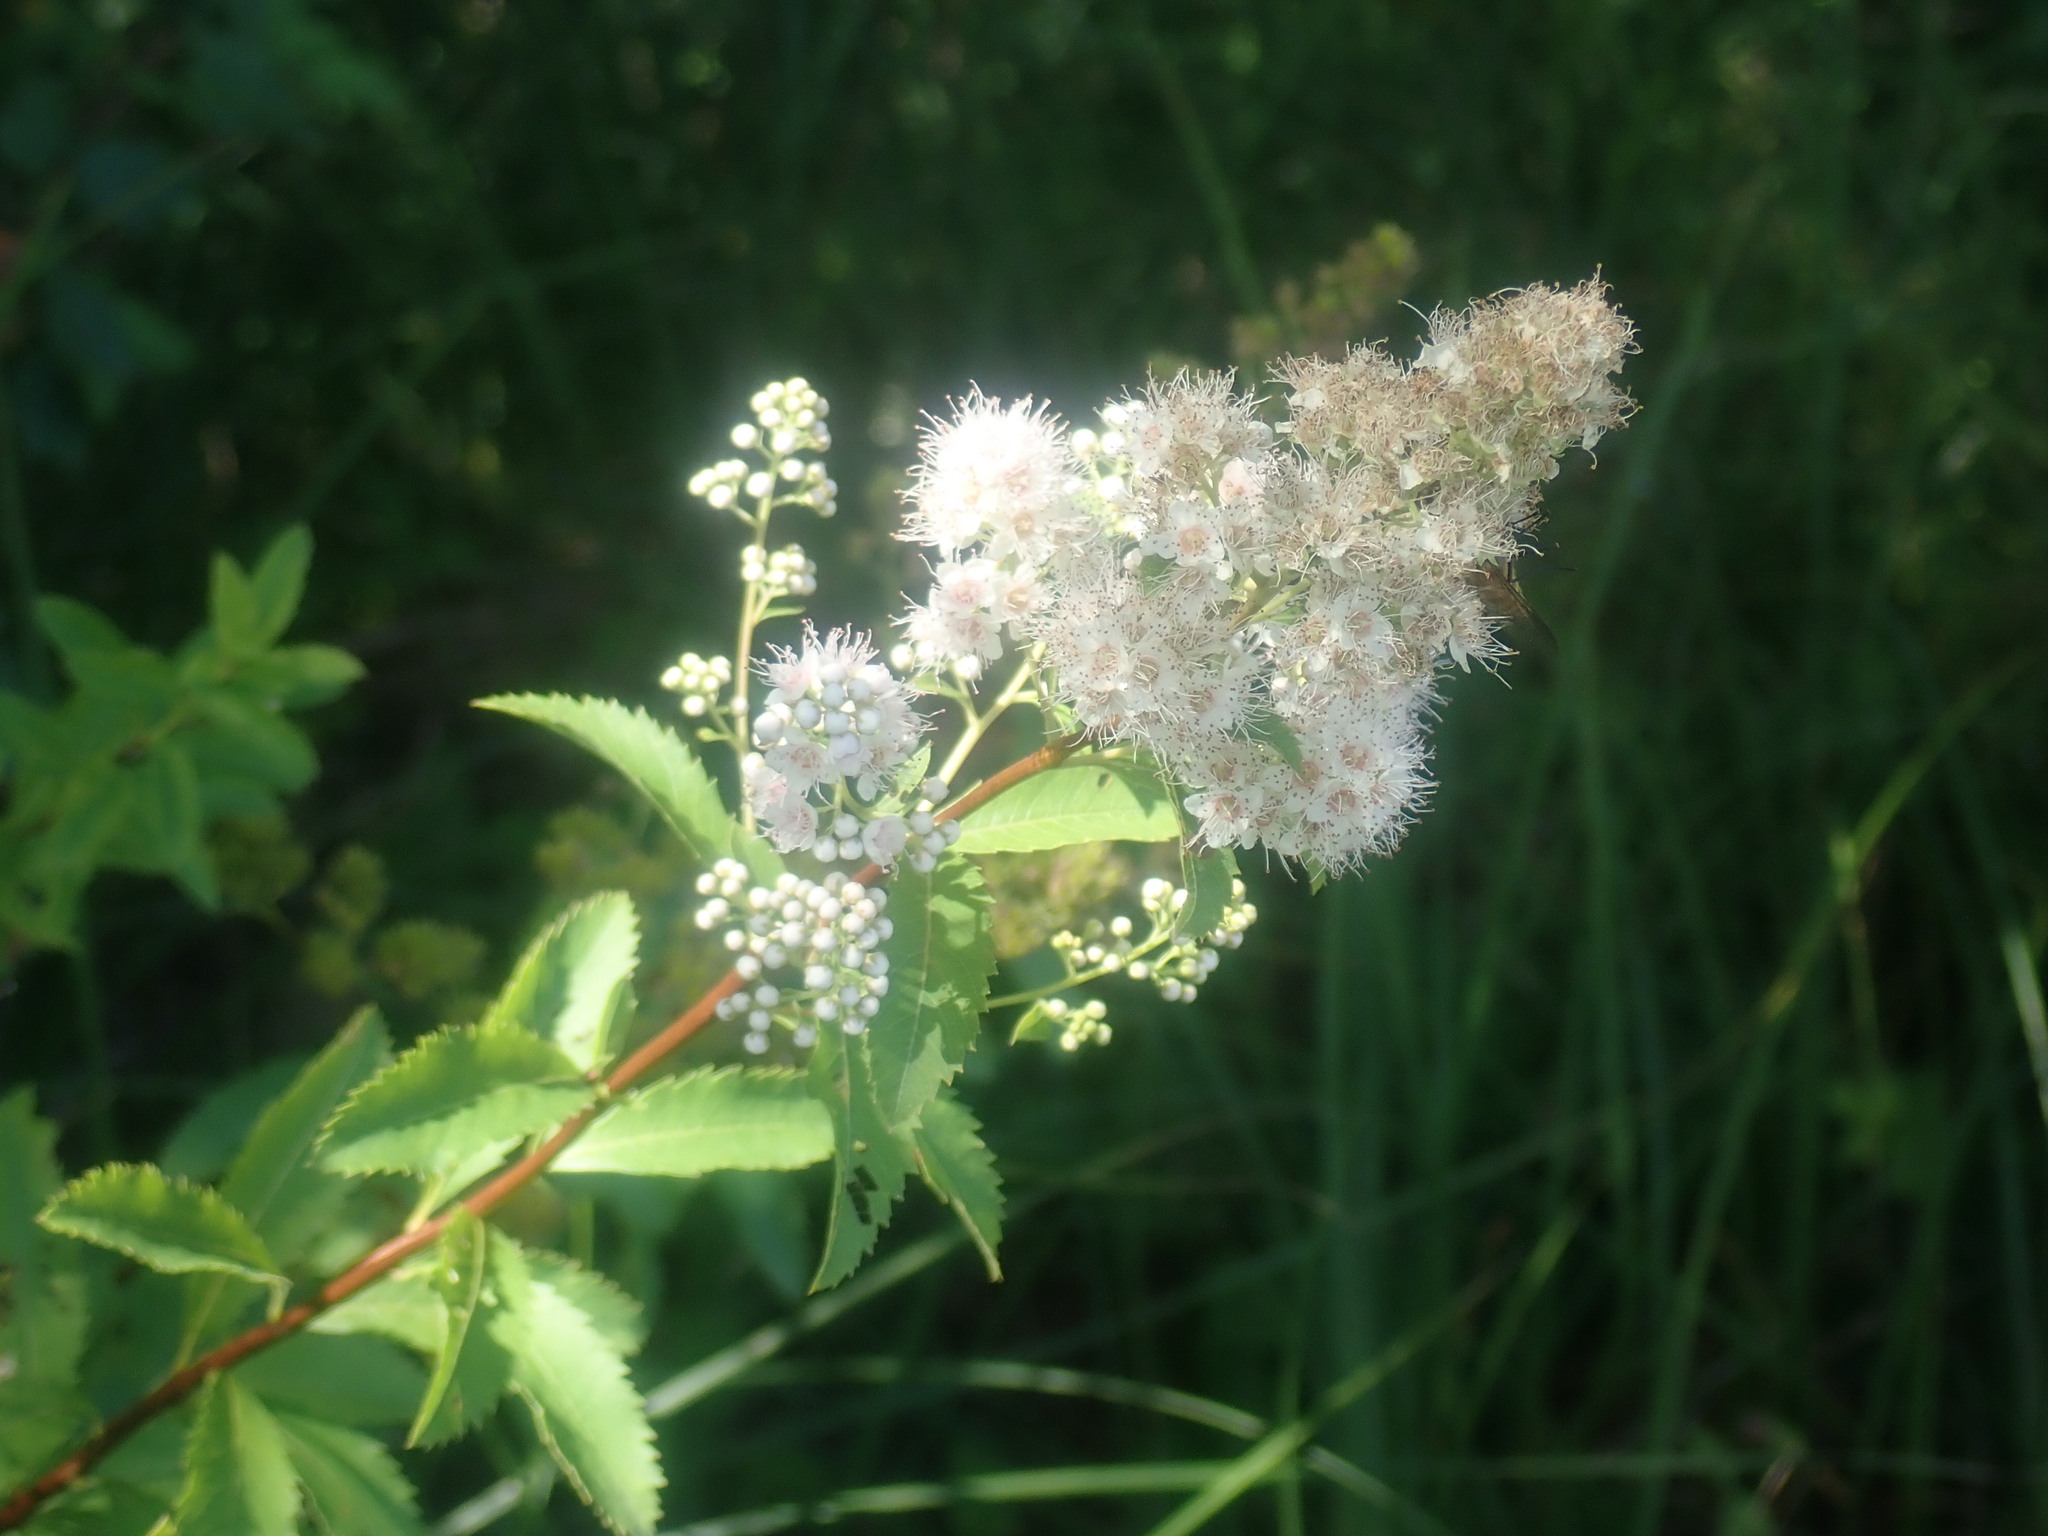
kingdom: Plantae
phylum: Tracheophyta
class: Magnoliopsida
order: Rosales
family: Rosaceae
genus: Spiraea
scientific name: Spiraea alba
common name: Pale bridewort
